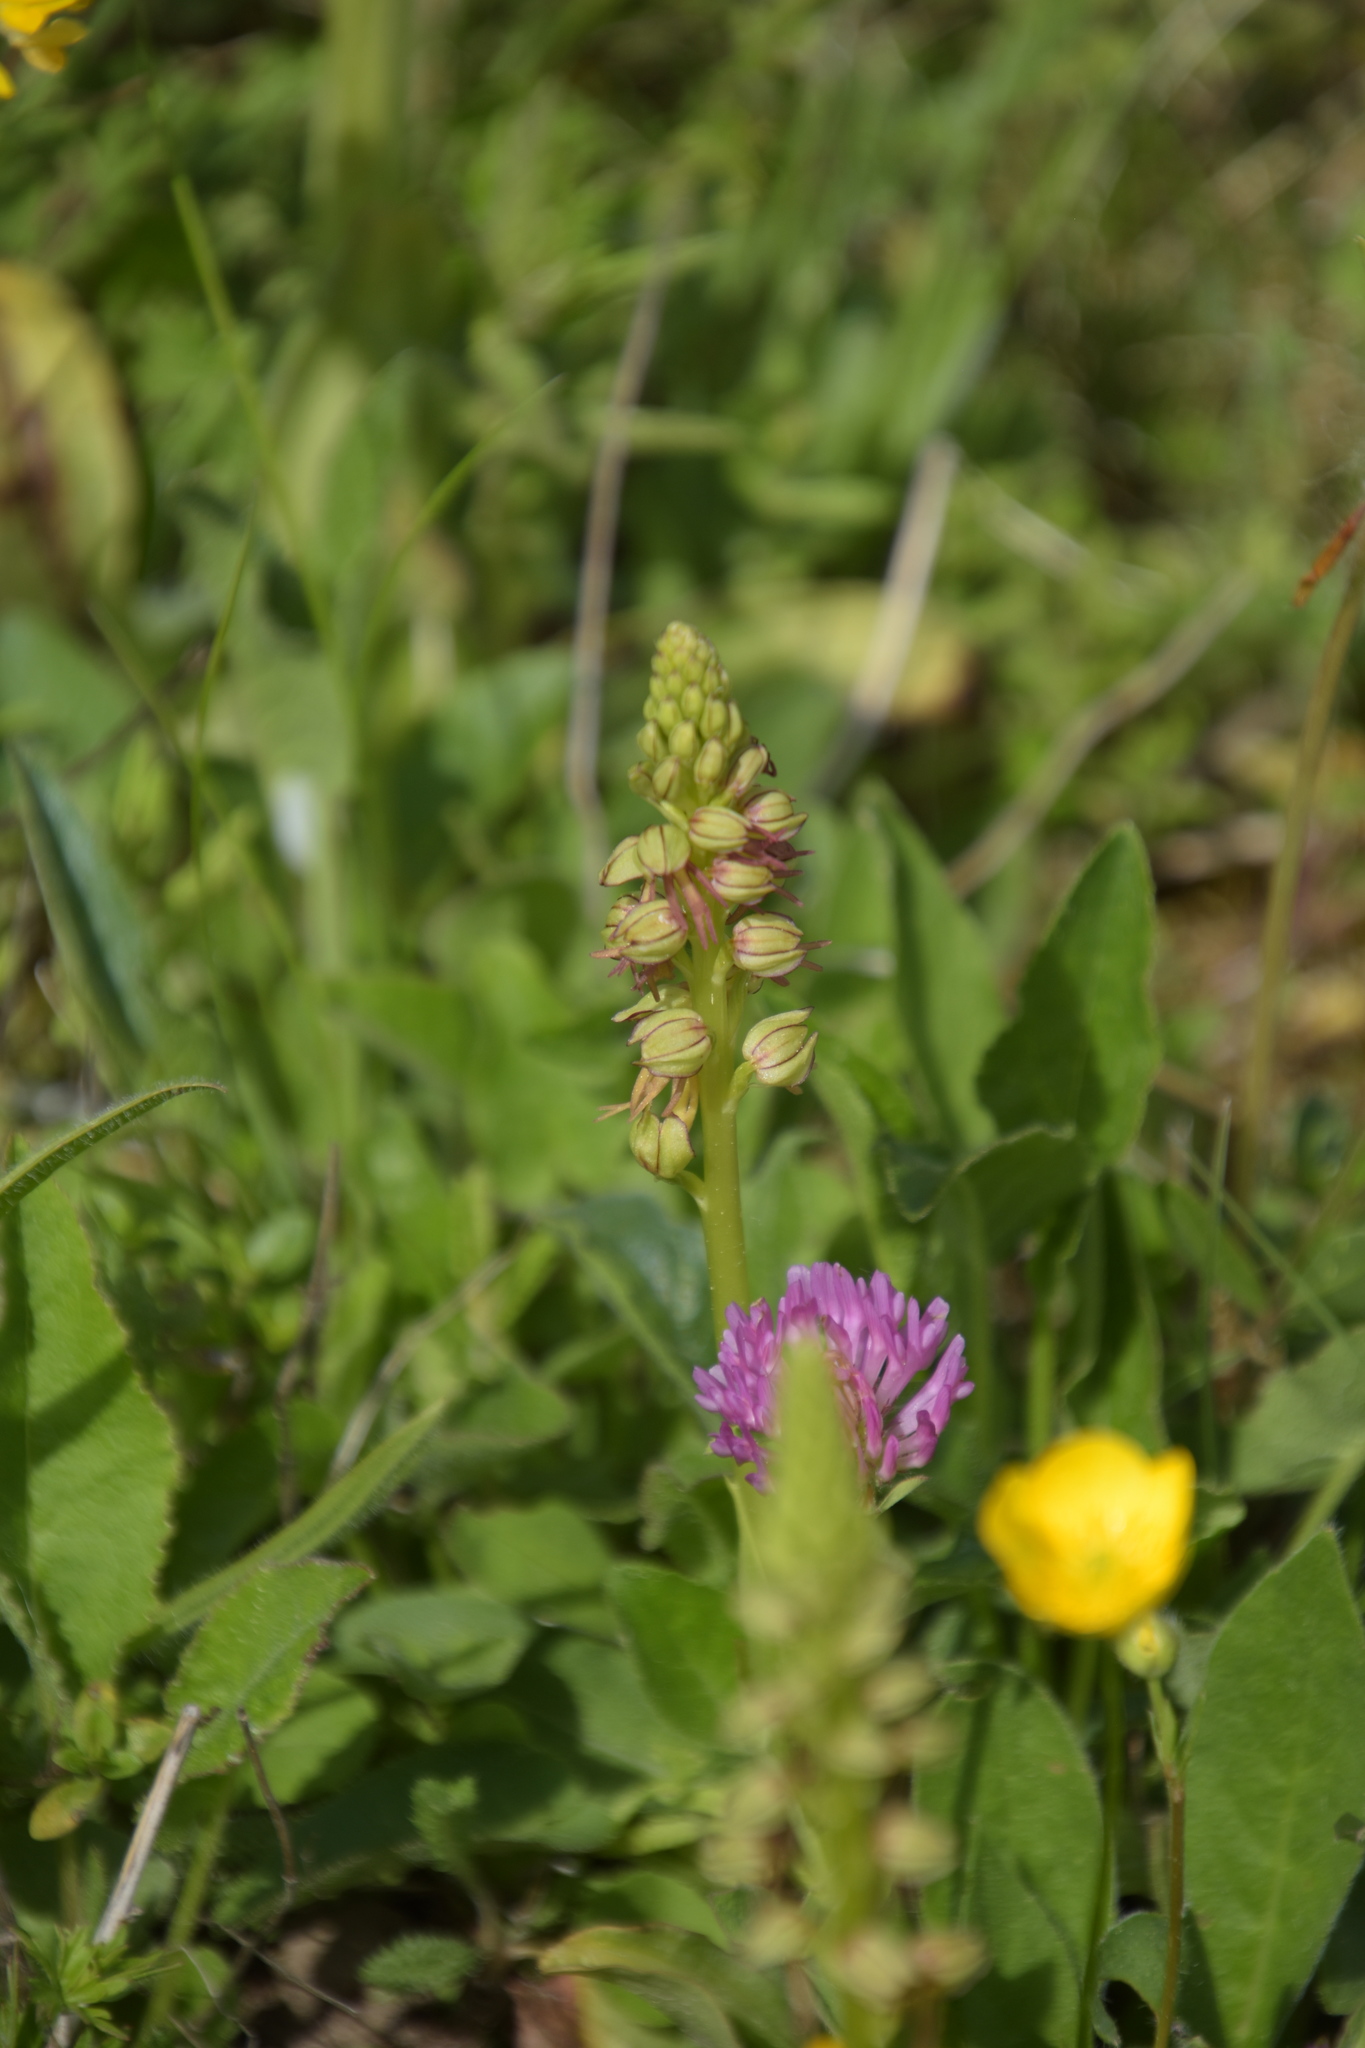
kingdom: Plantae
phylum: Tracheophyta
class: Liliopsida
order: Asparagales
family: Orchidaceae
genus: Orchis
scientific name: Orchis anthropophora
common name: Man orchid
